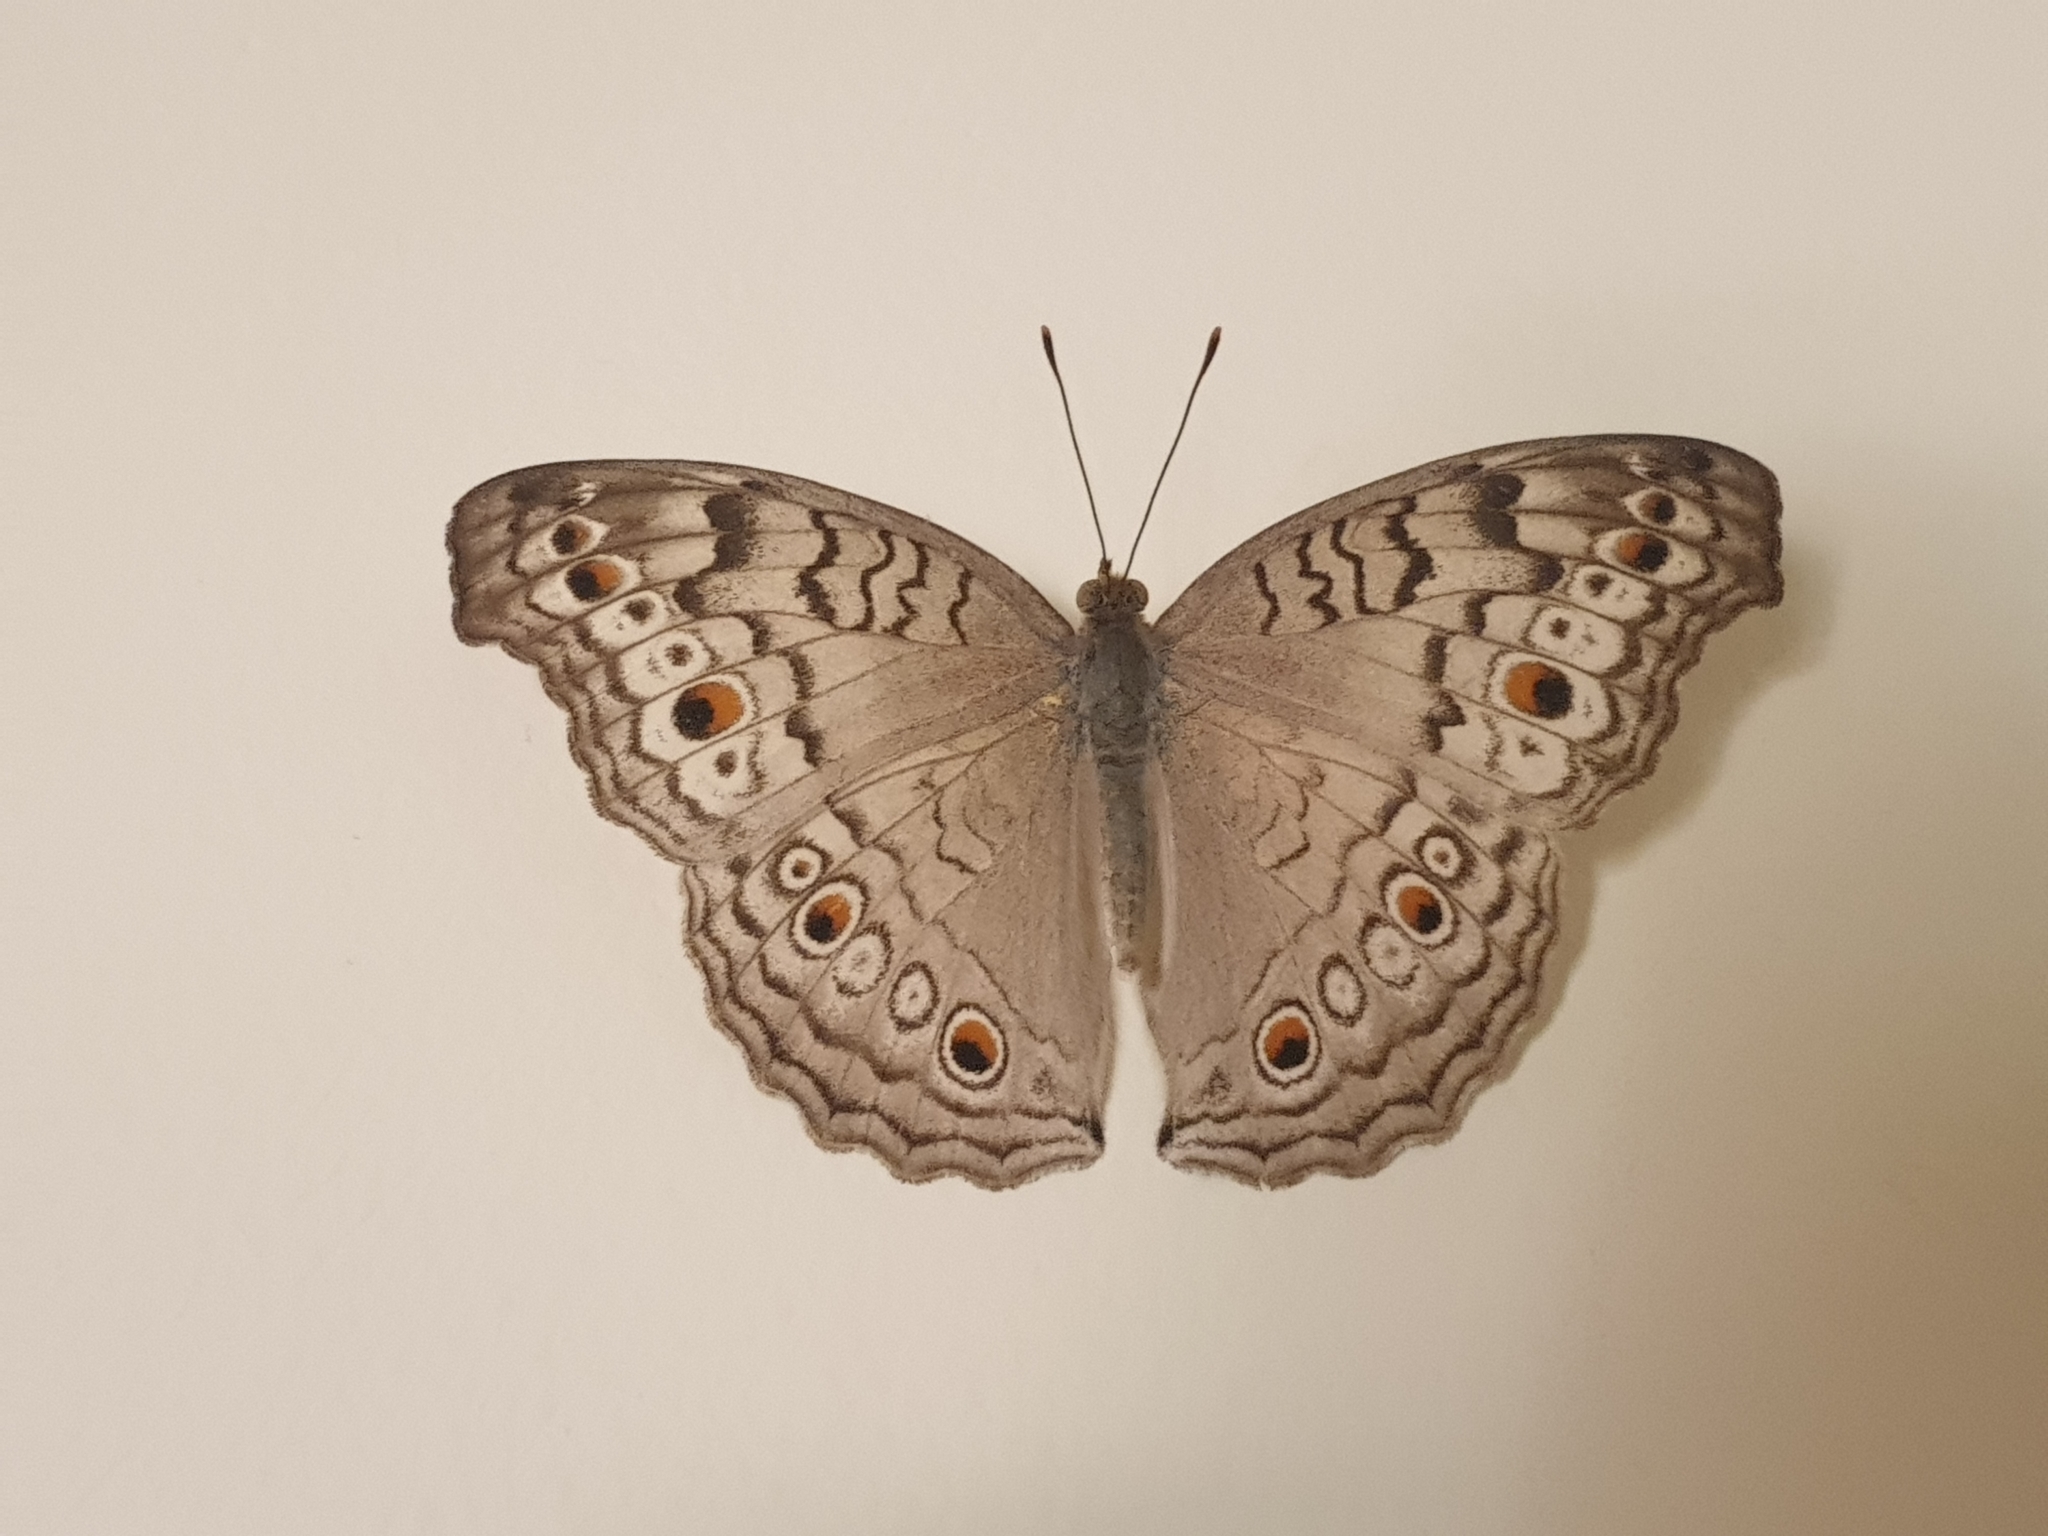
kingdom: Animalia
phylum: Arthropoda
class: Insecta
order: Lepidoptera
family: Nymphalidae
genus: Junonia
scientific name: Junonia atlites
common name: Grey pansy
